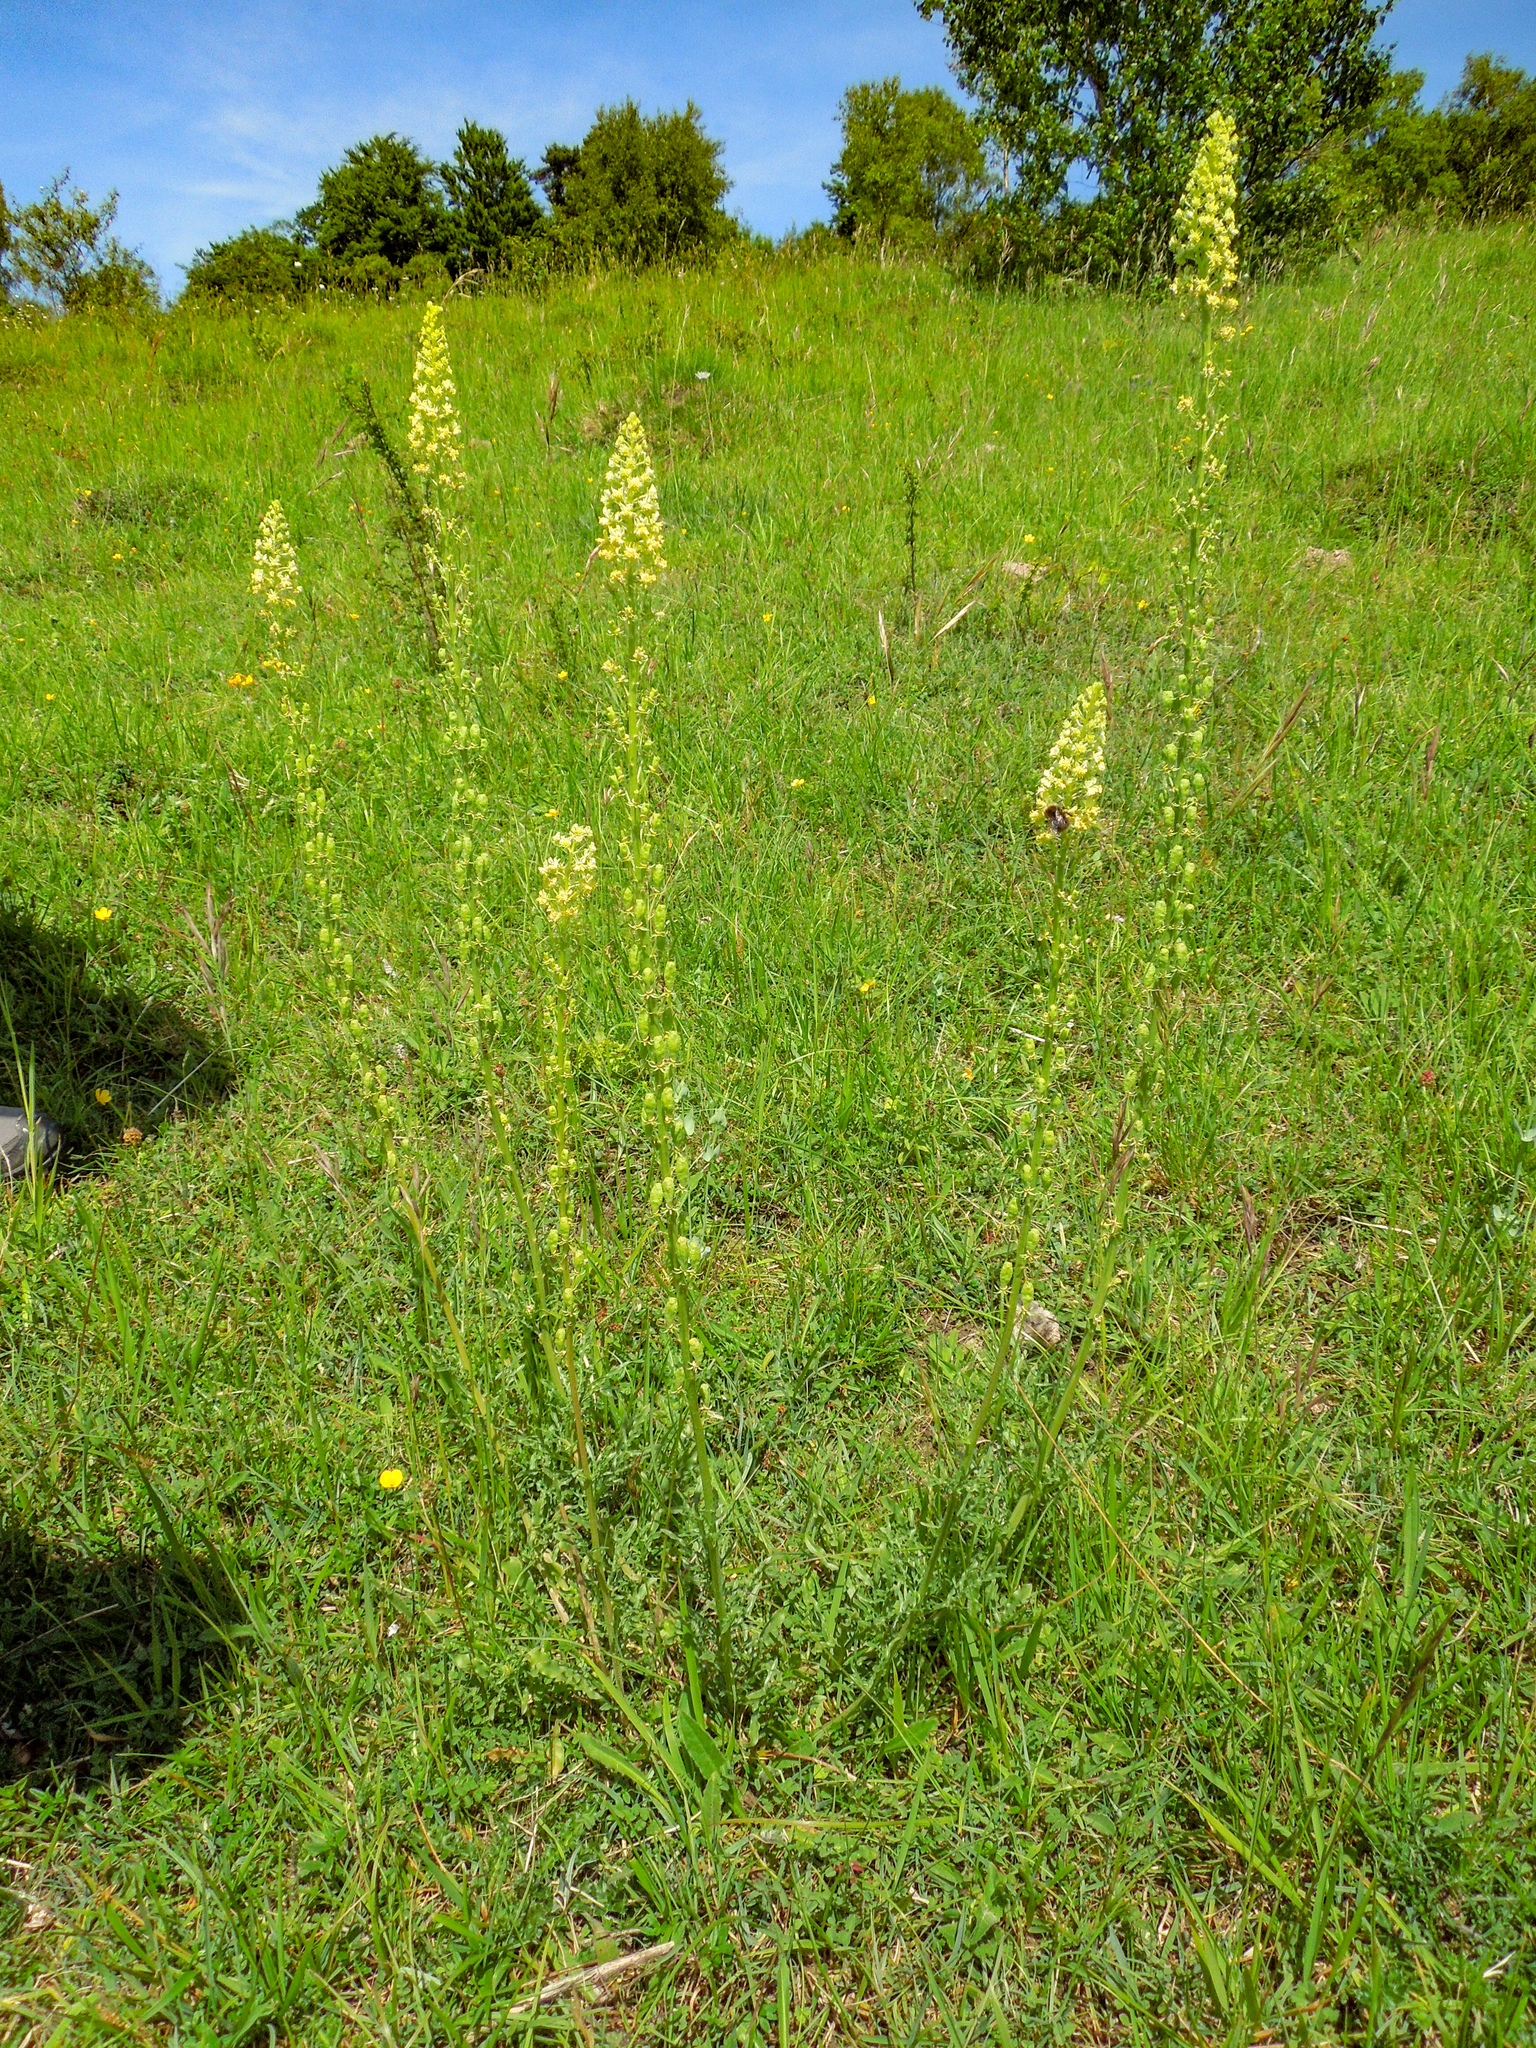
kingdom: Plantae
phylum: Tracheophyta
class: Magnoliopsida
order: Brassicales
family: Resedaceae
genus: Reseda
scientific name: Reseda lutea
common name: Wild mignonette
